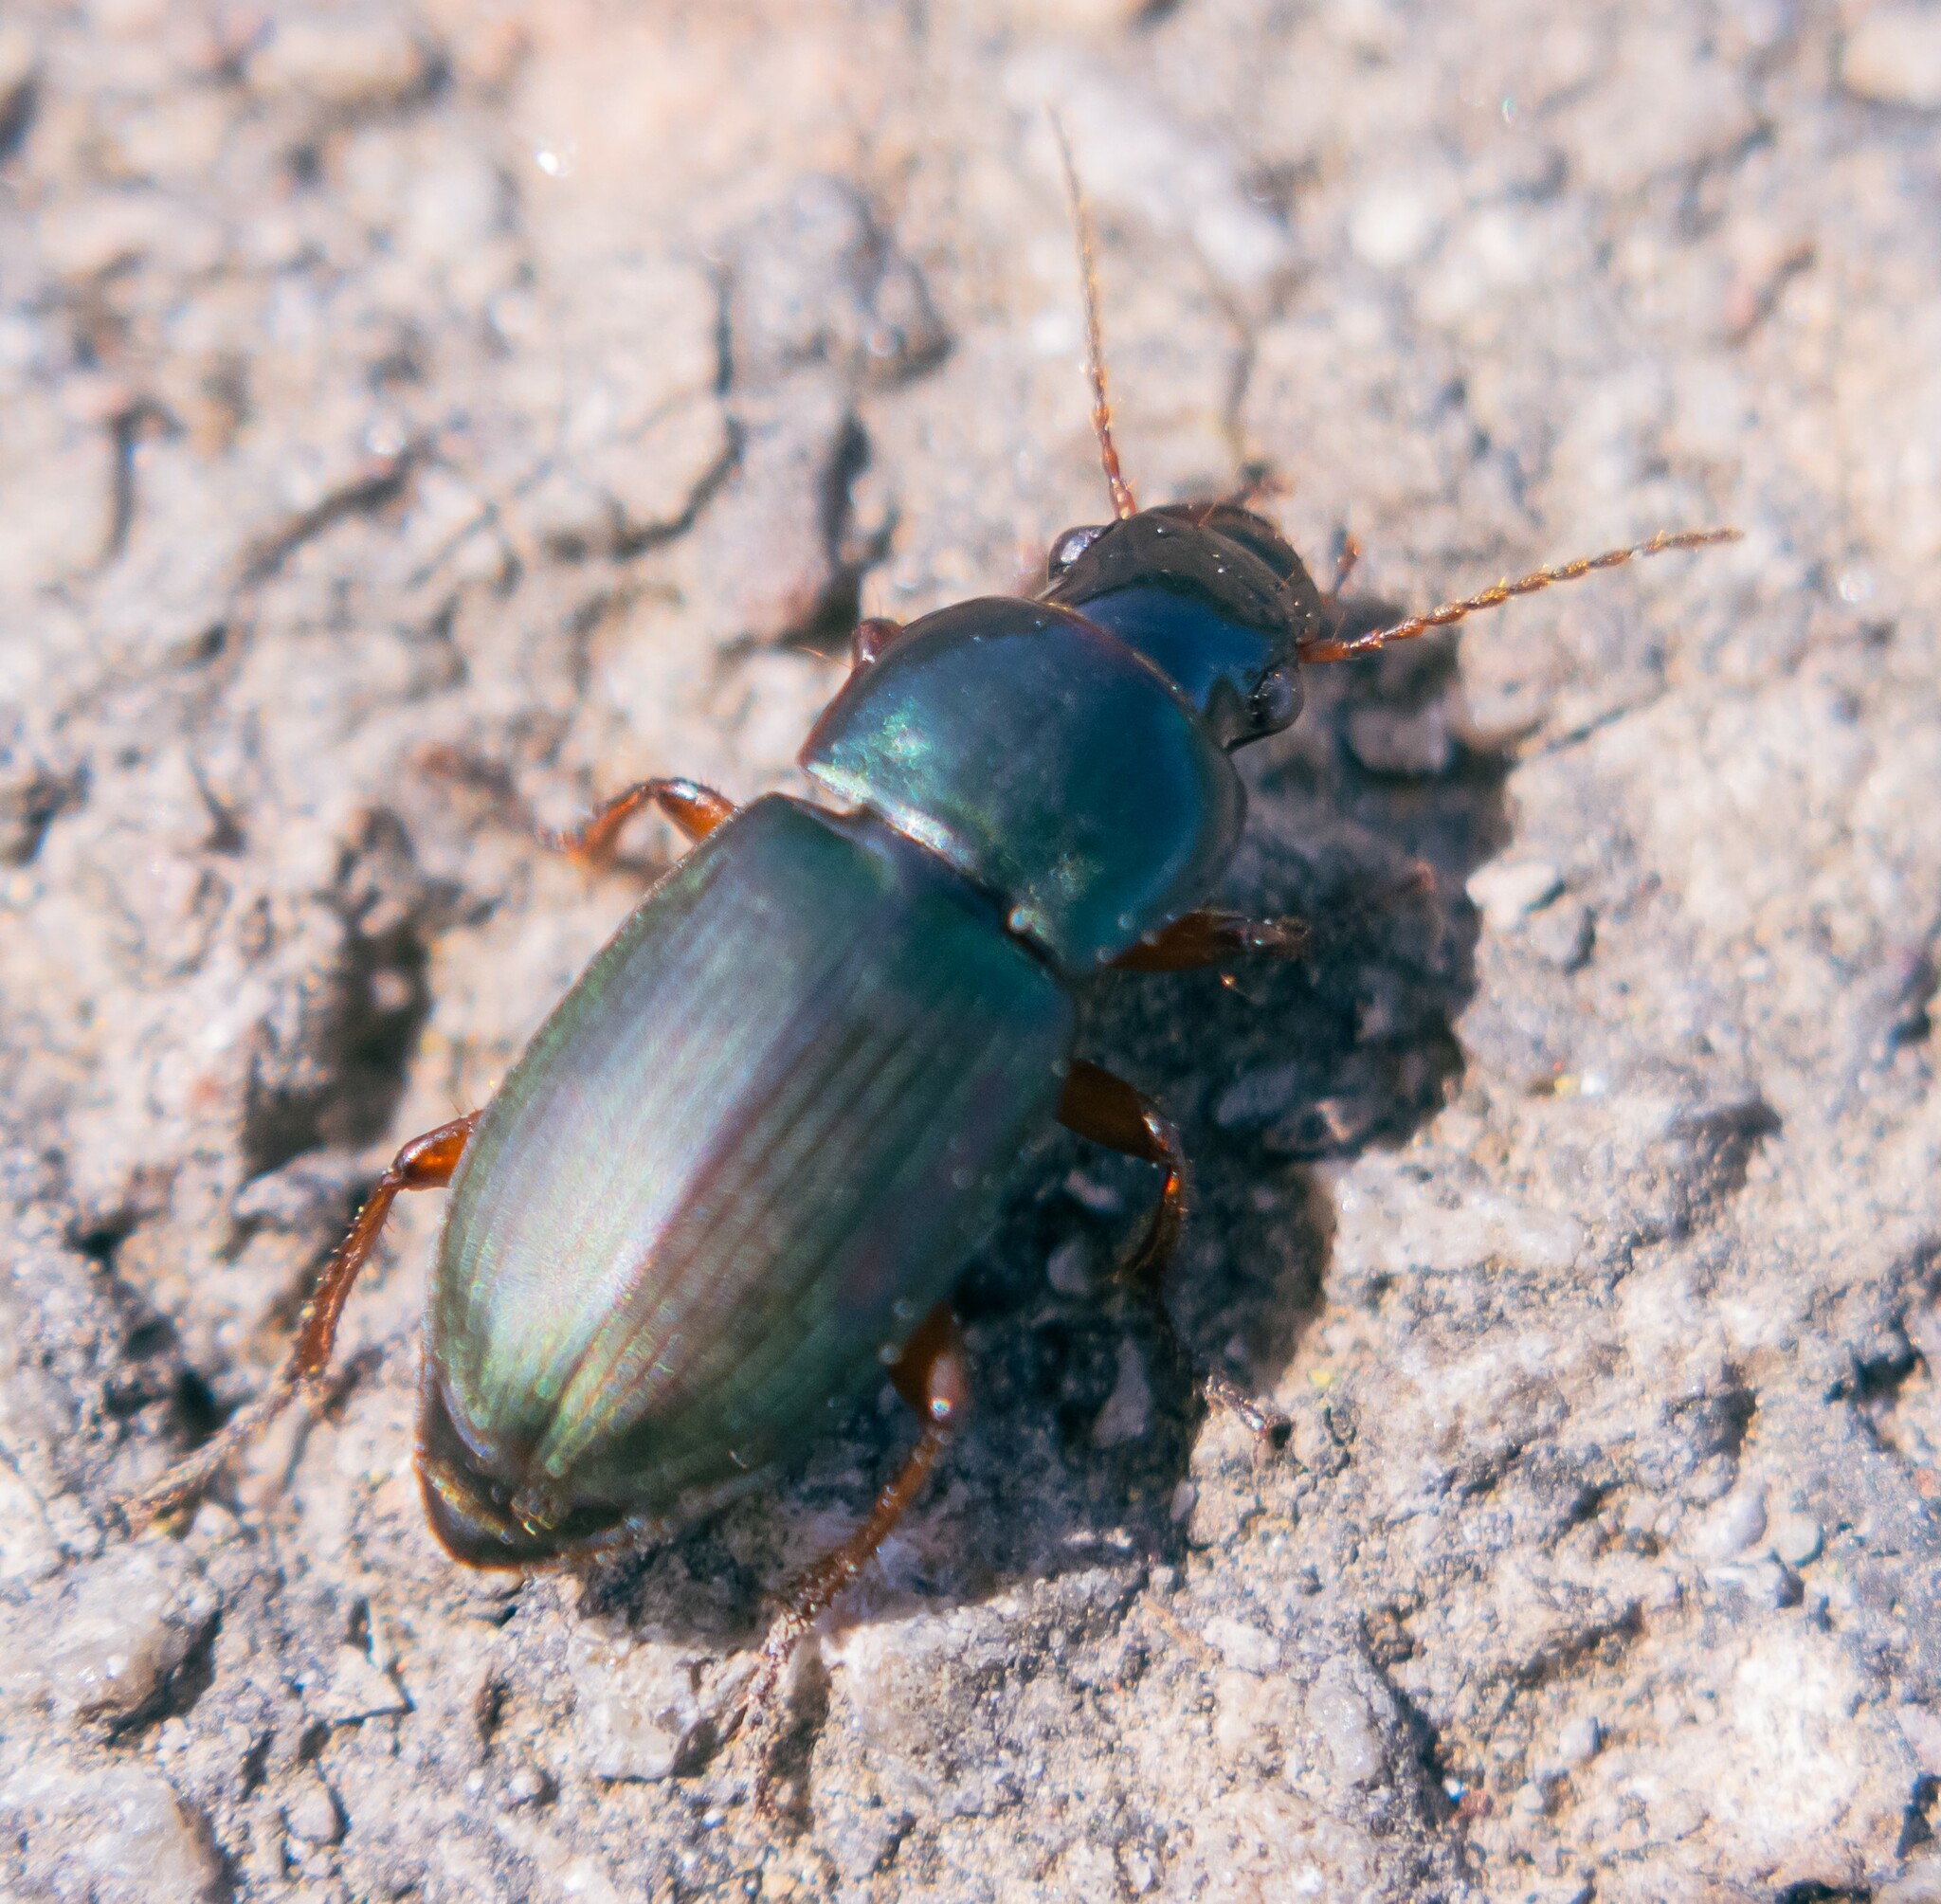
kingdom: Animalia
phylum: Arthropoda
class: Insecta
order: Coleoptera
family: Carabidae
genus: Harpalus
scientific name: Harpalus rubripes
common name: Red-legged harp ground beetle
